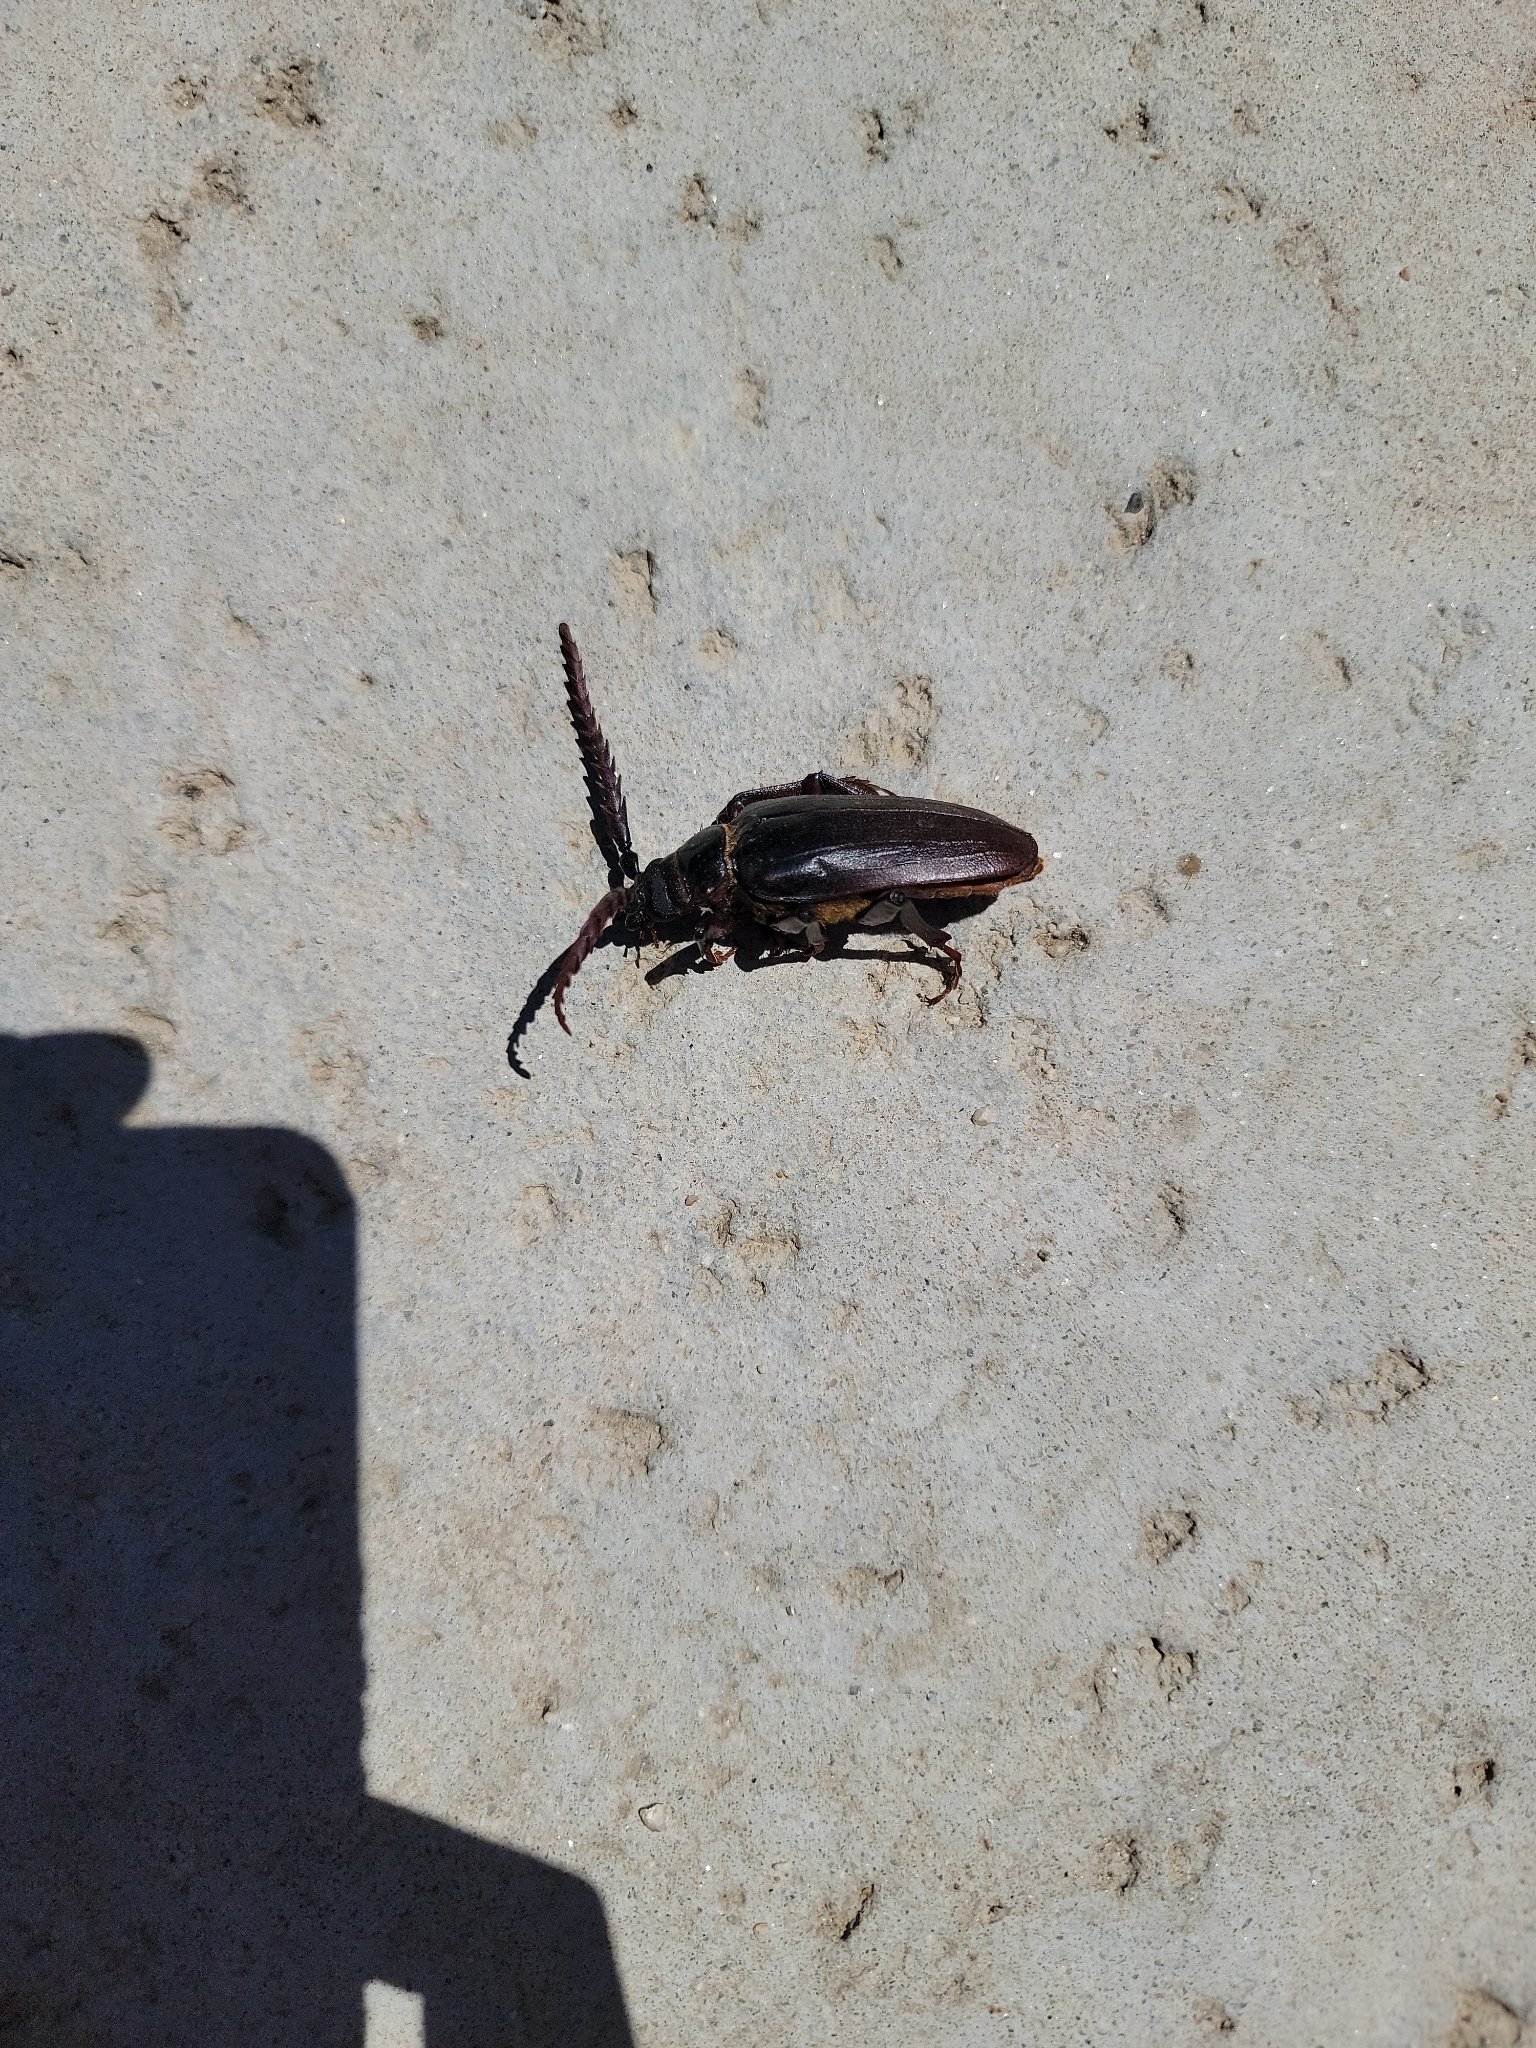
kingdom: Animalia
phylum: Arthropoda
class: Insecta
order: Coleoptera
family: Cerambycidae
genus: Prionus
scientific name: Prionus californicus
